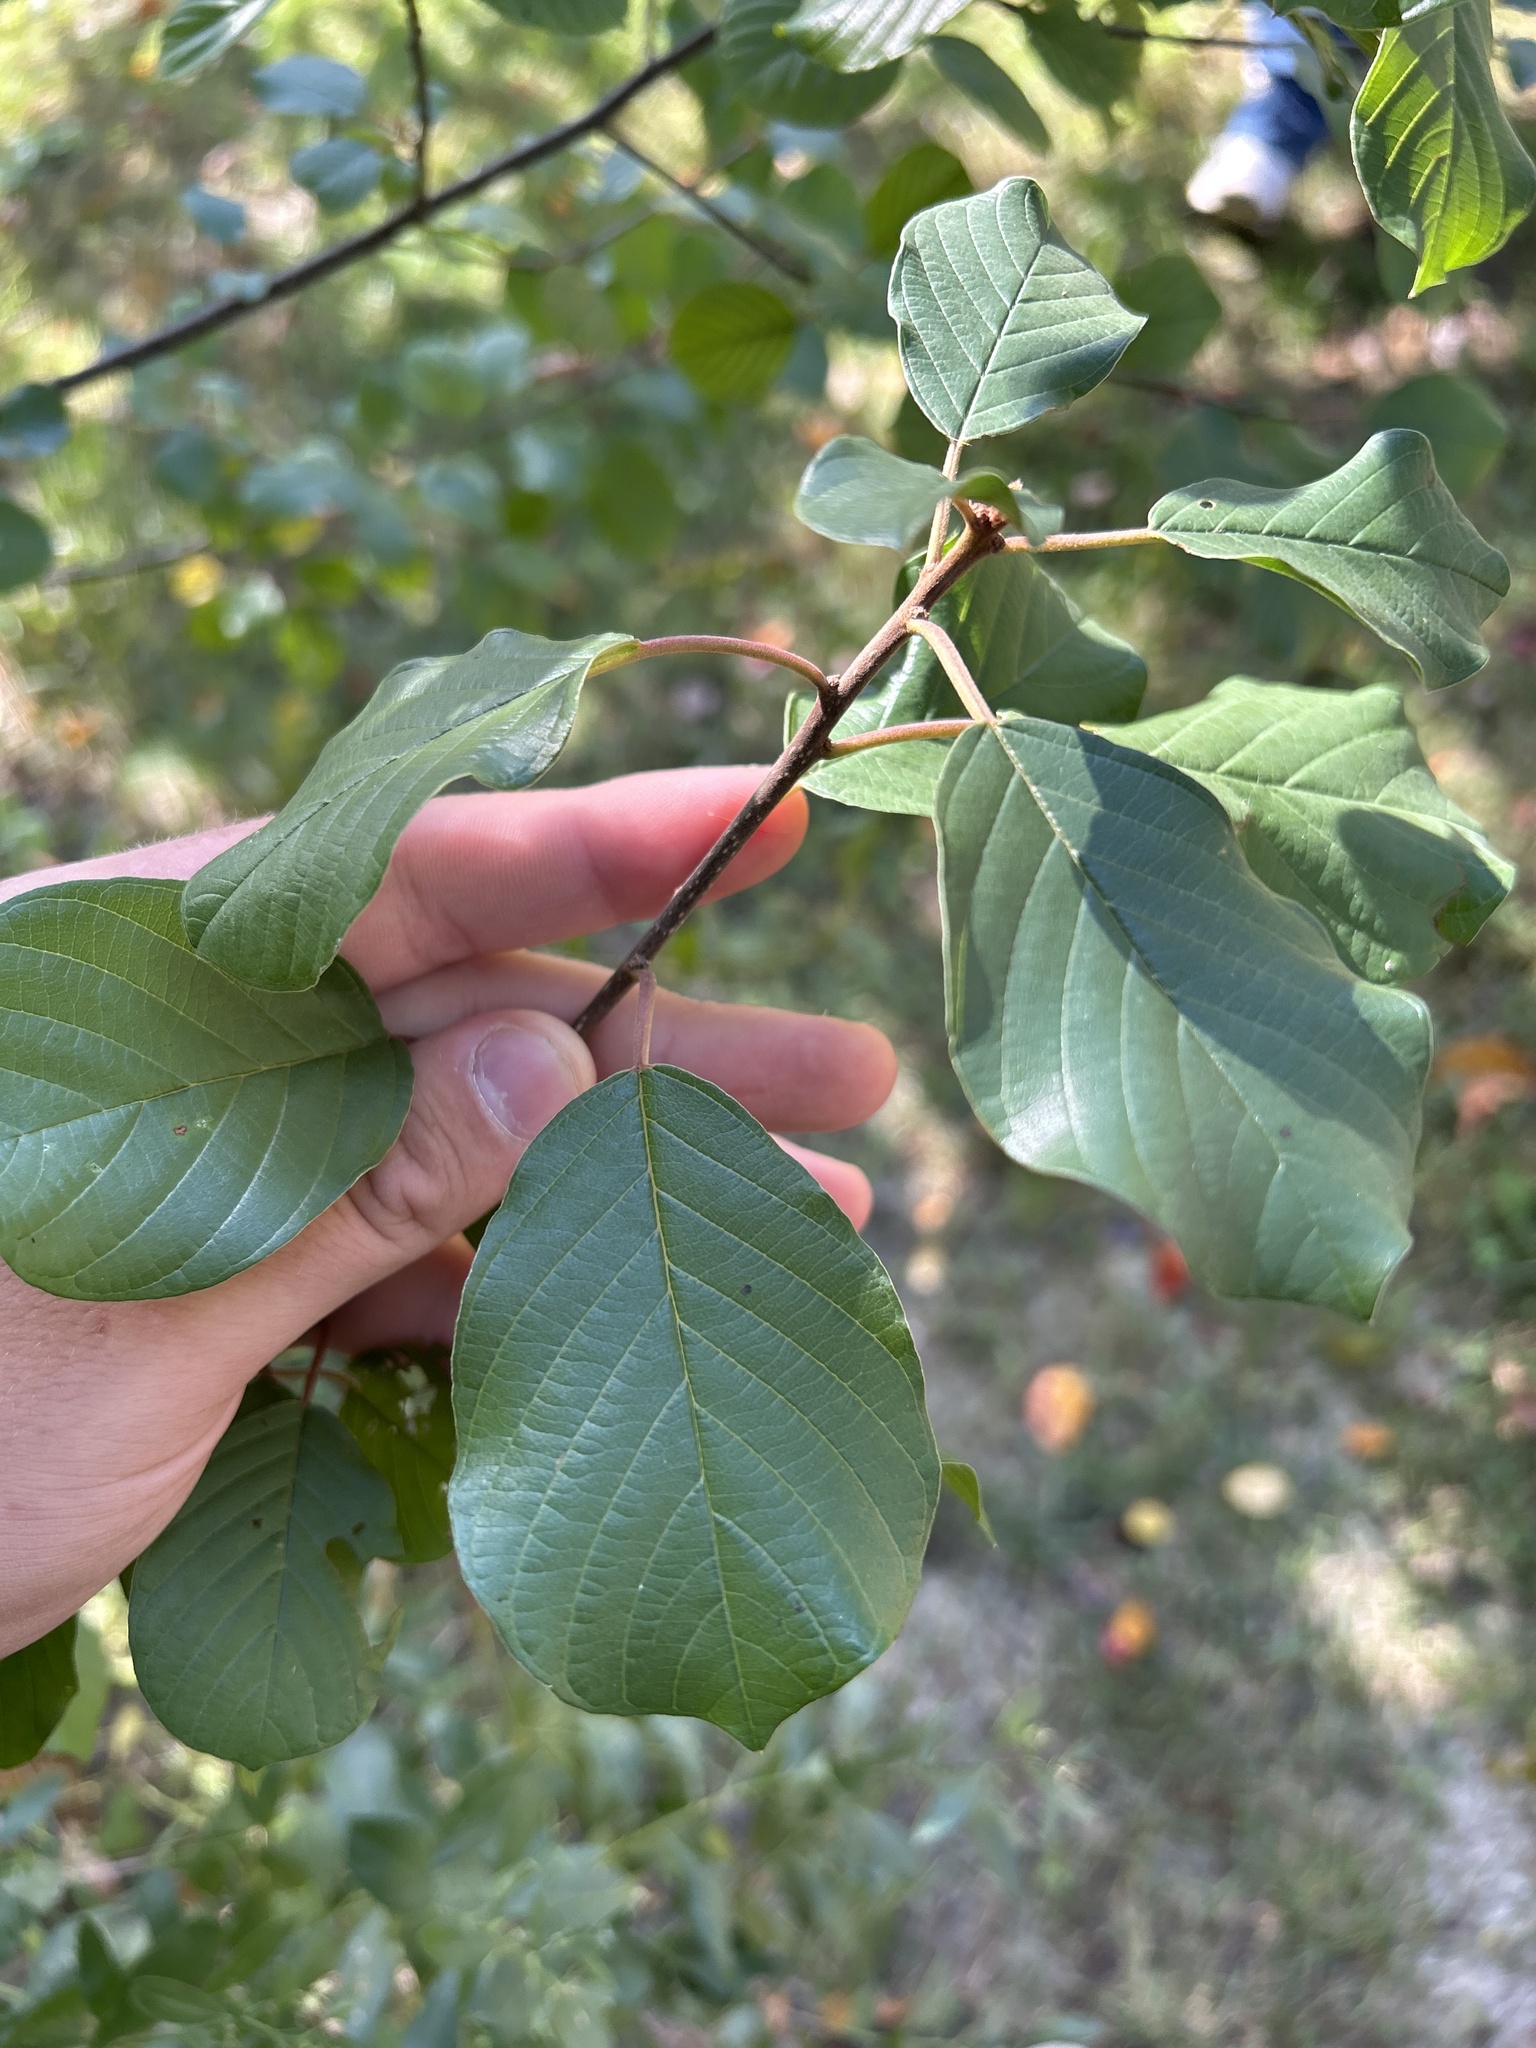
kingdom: Plantae
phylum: Tracheophyta
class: Magnoliopsida
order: Rosales
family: Rhamnaceae
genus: Frangula
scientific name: Frangula alnus
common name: Alder buckthorn
